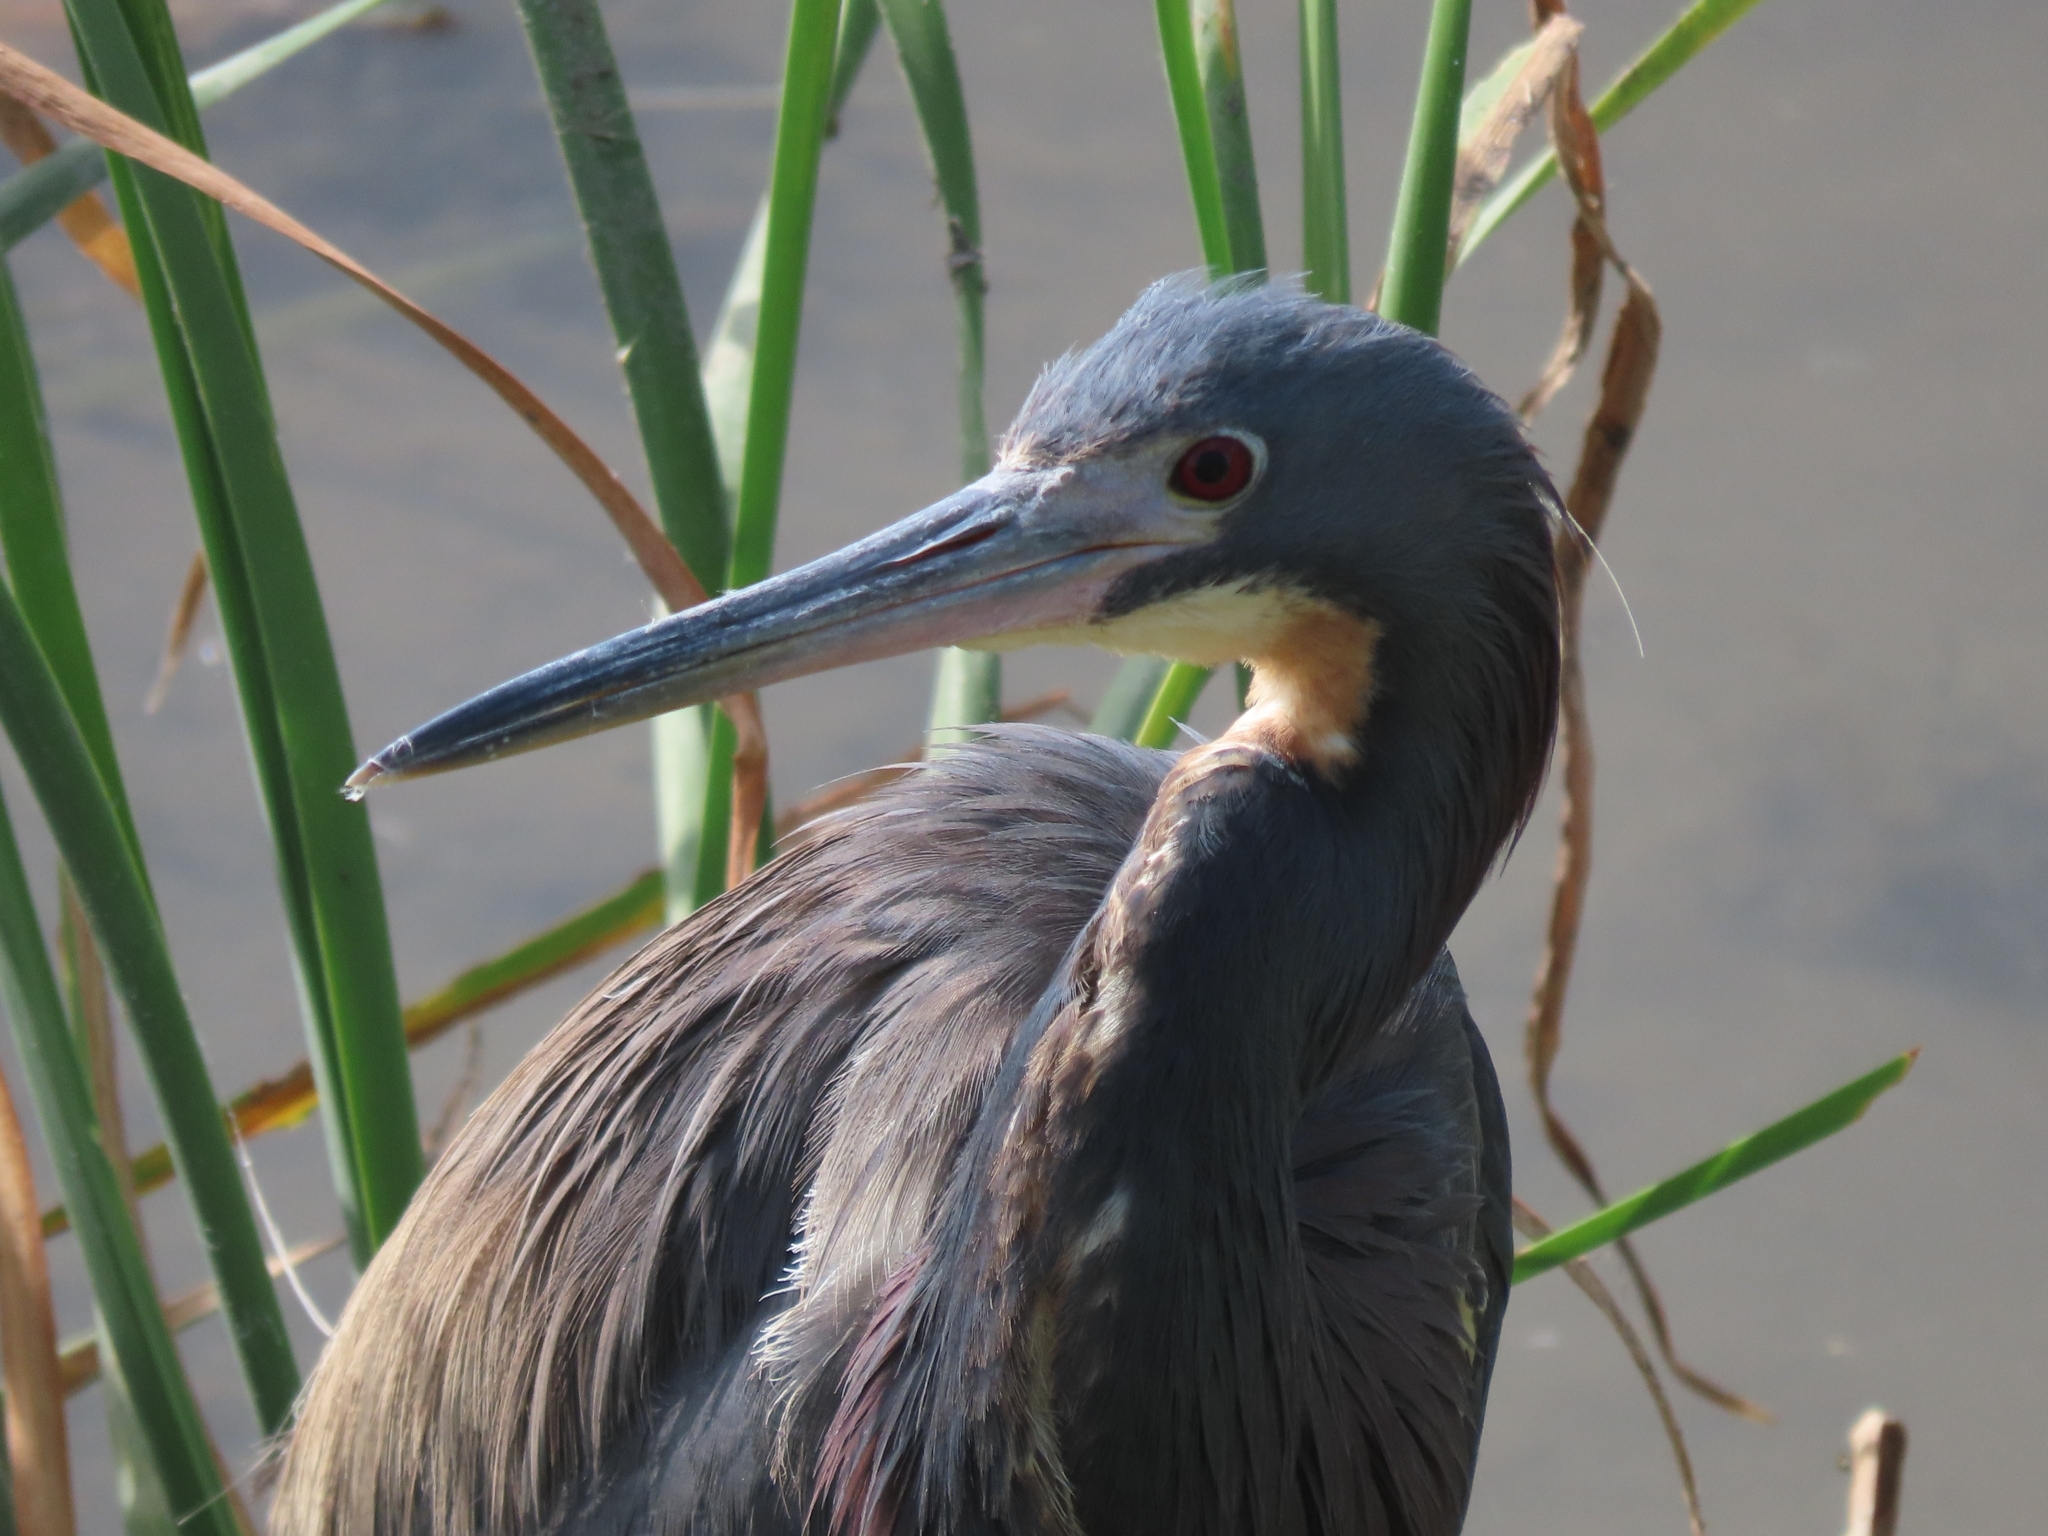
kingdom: Animalia
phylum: Chordata
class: Aves
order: Pelecaniformes
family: Ardeidae
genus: Egretta
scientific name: Egretta tricolor
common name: Tricolored heron
